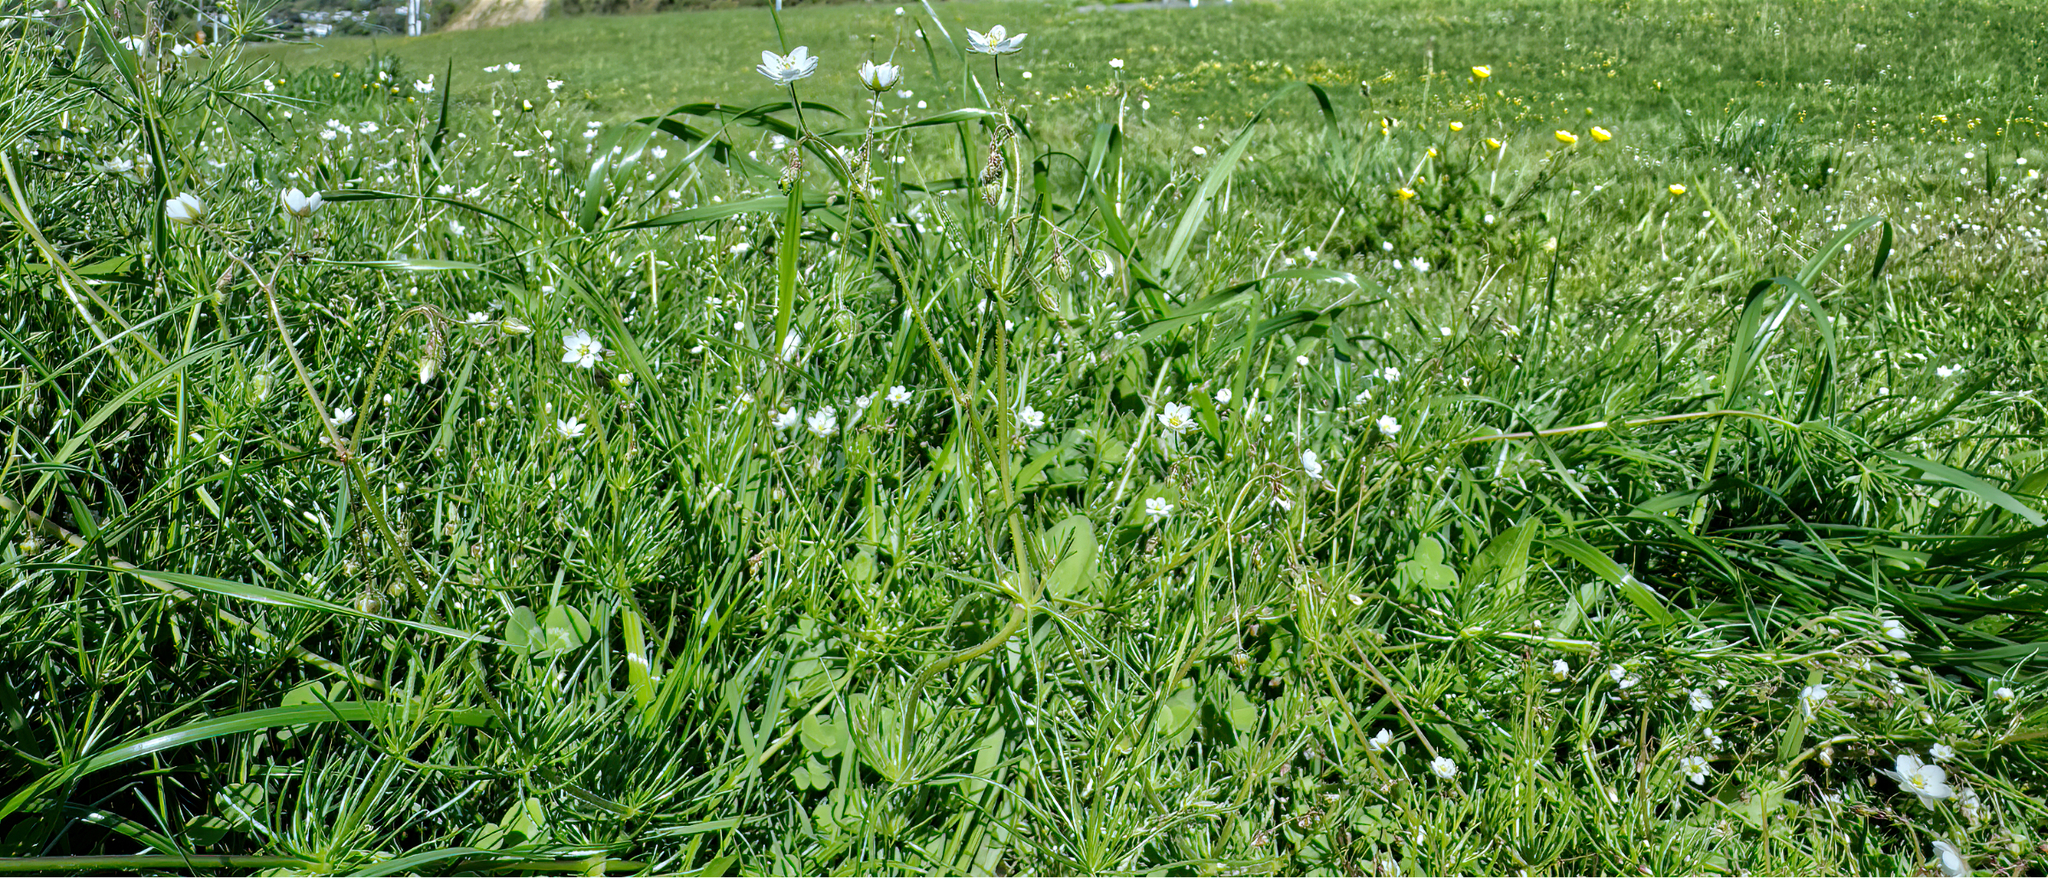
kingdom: Plantae
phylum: Tracheophyta
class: Magnoliopsida
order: Caryophyllales
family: Caryophyllaceae
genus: Spergula
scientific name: Spergula arvensis
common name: Corn spurrey
